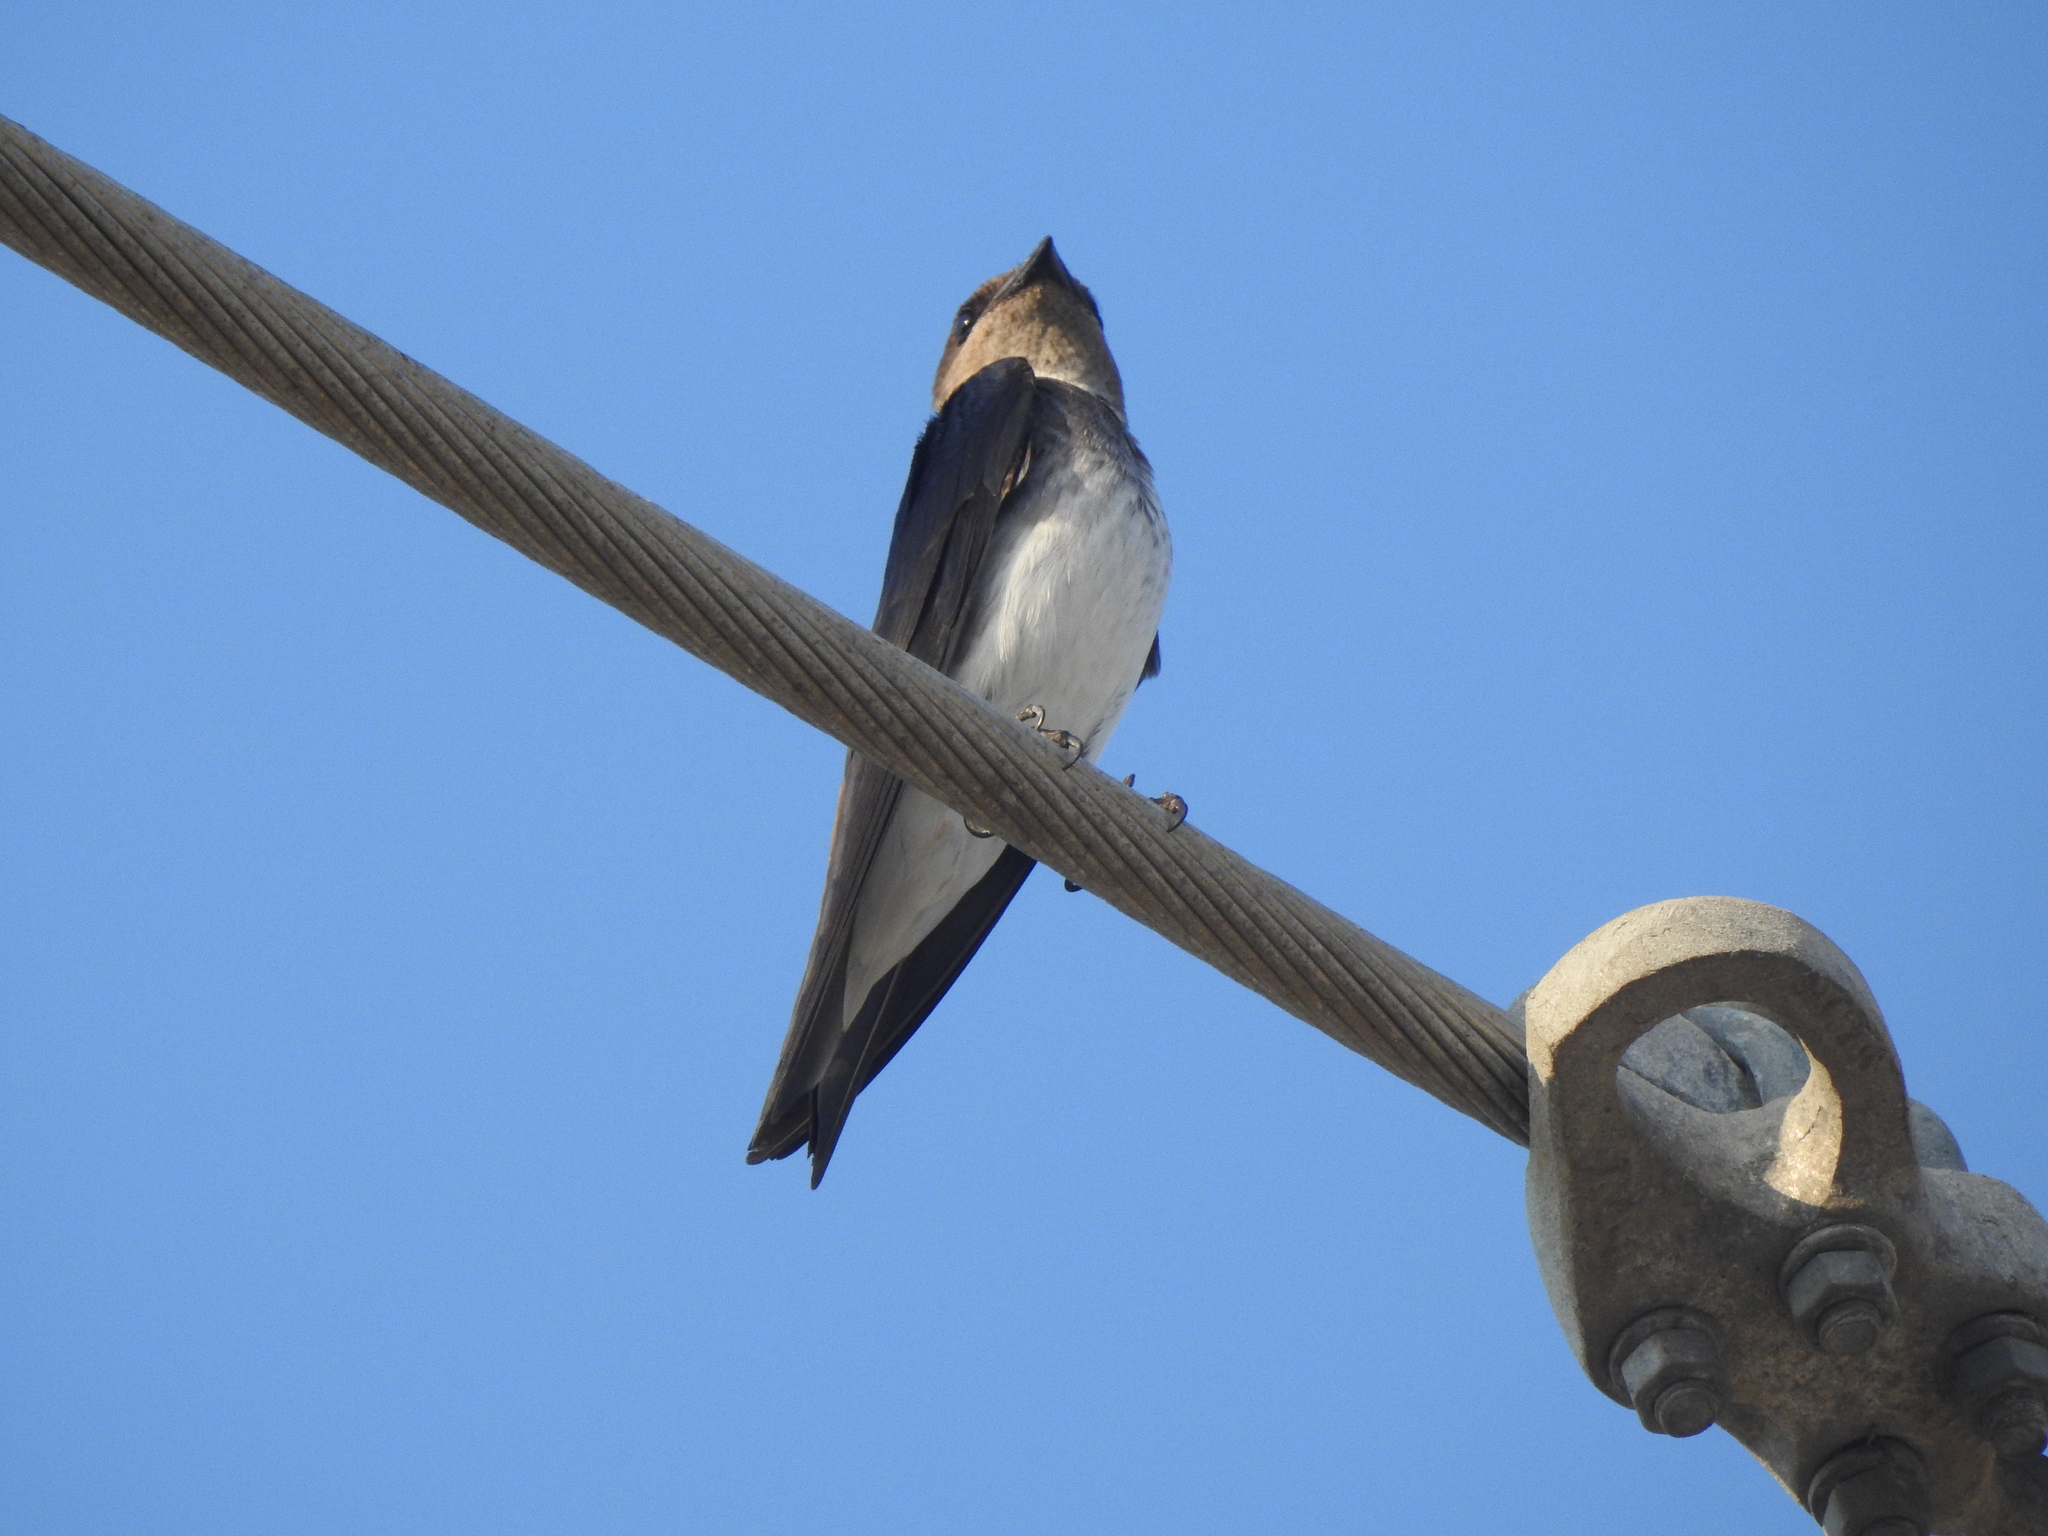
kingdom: Animalia
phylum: Chordata
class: Aves
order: Passeriformes
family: Hirundinidae
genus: Progne
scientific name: Progne chalybea
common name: Grey-breasted martin
